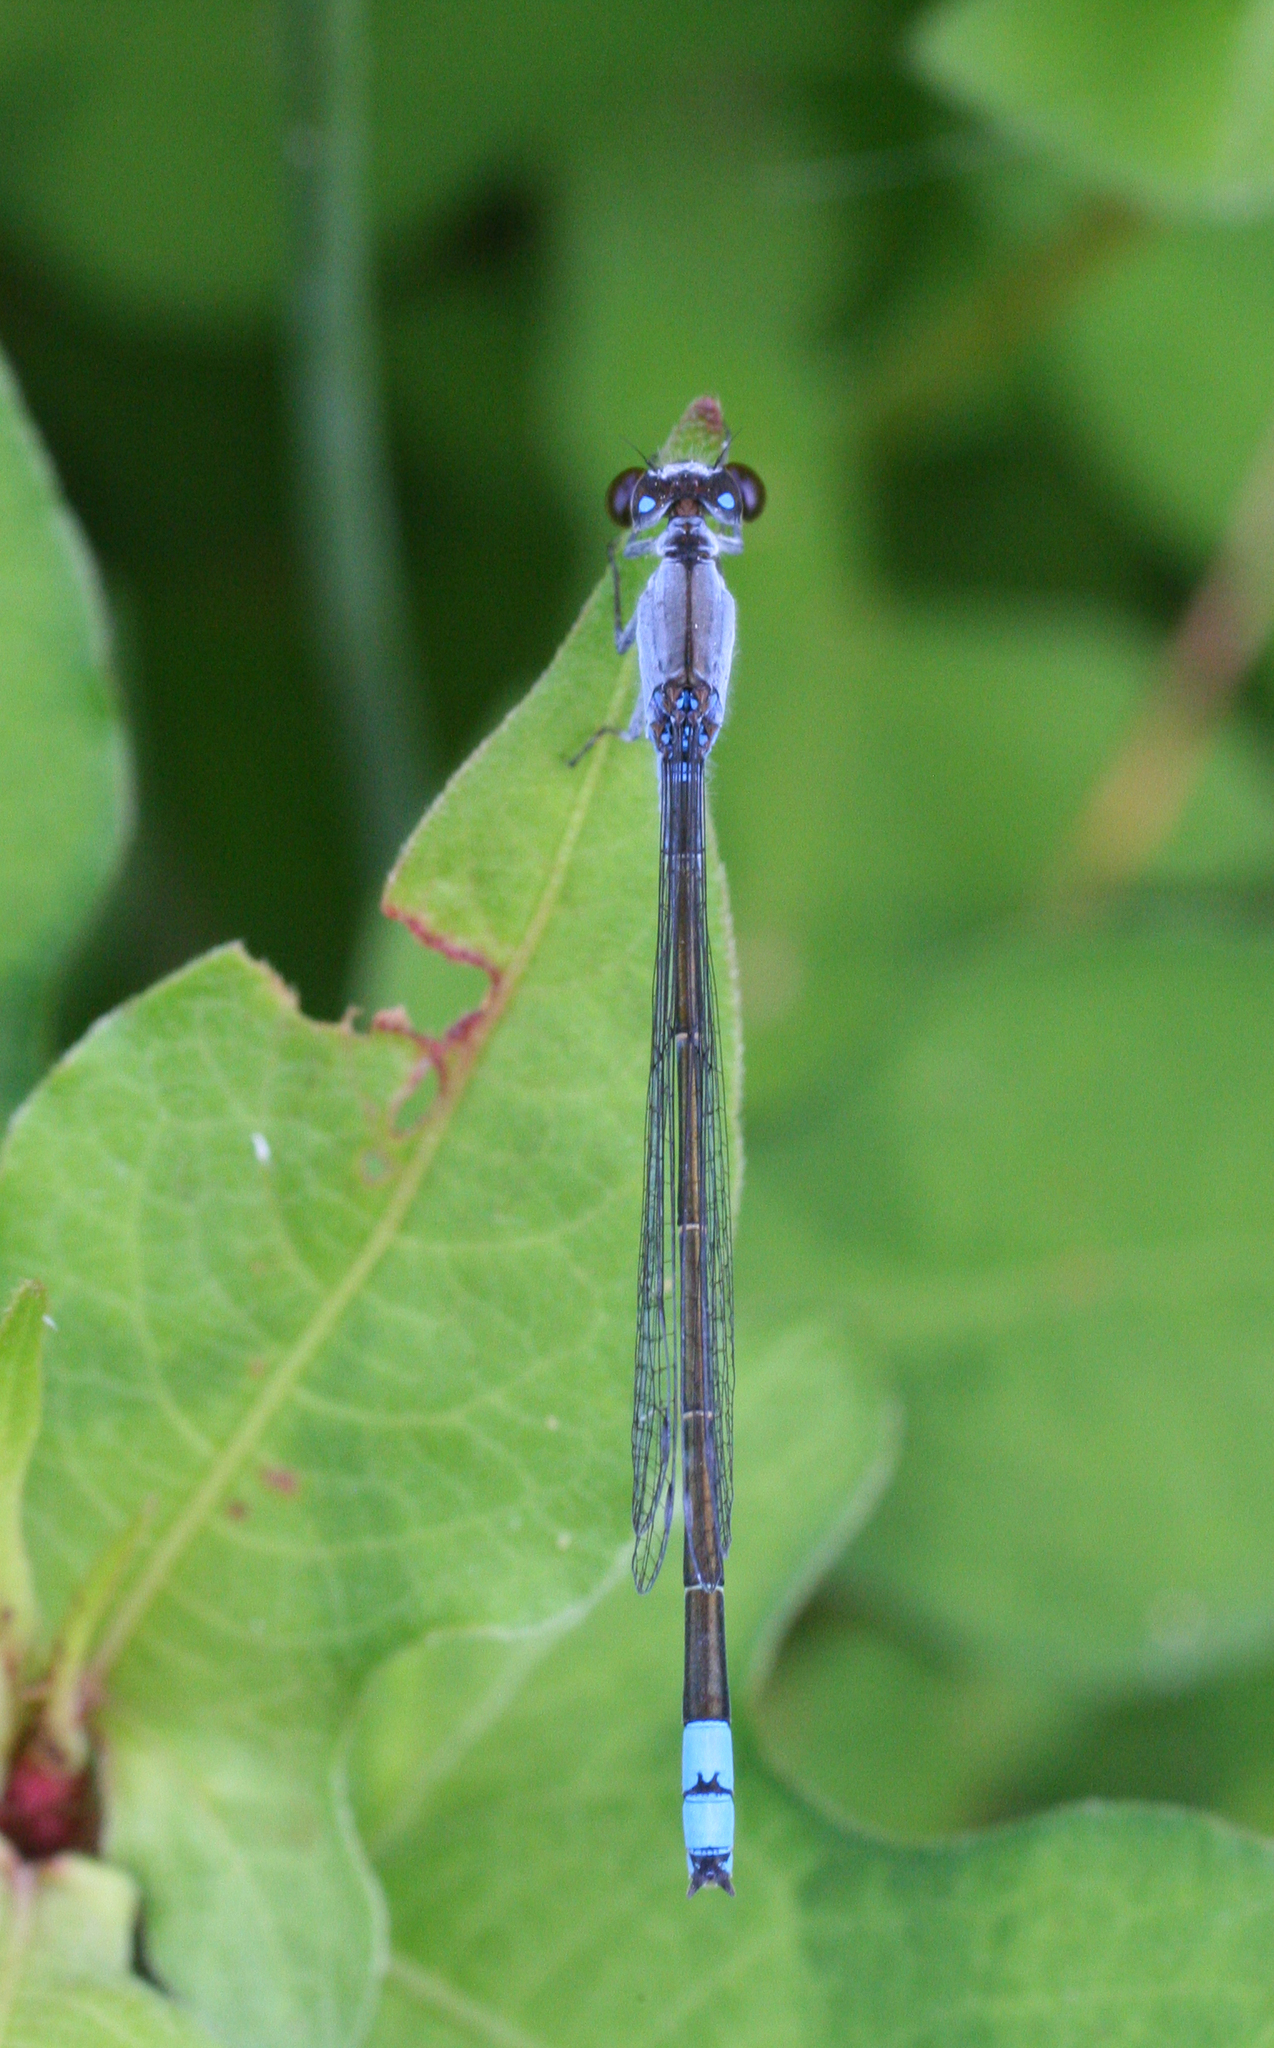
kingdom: Animalia
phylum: Arthropoda
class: Insecta
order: Odonata
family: Coenagrionidae
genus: Paracercion
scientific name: Paracercion calamorum
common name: Dusky lilysquatter
